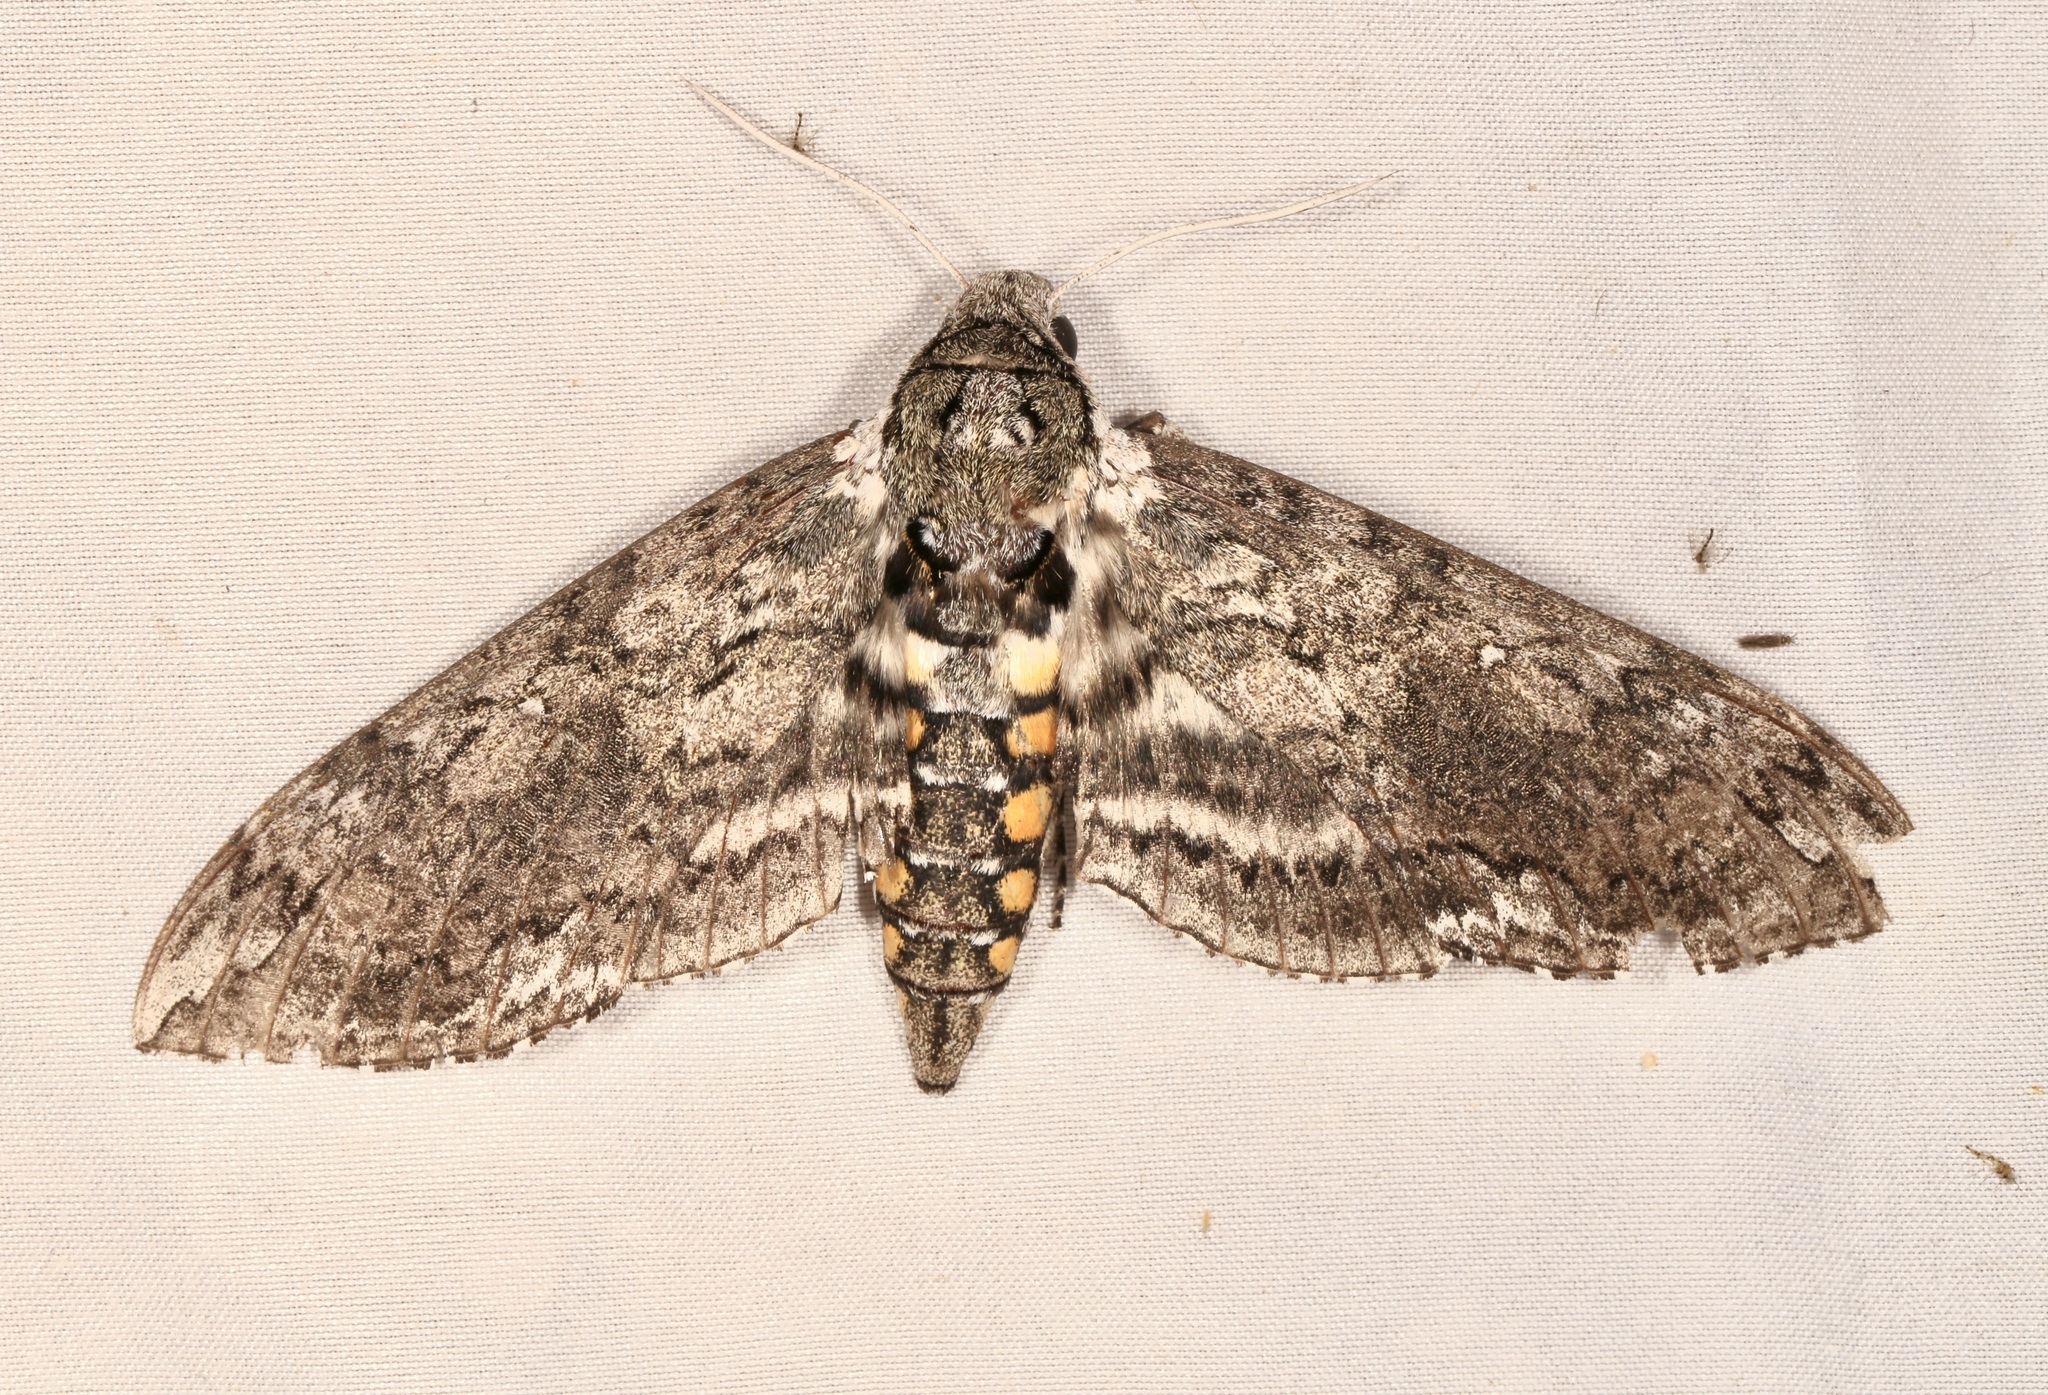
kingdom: Animalia
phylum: Arthropoda
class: Insecta
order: Lepidoptera
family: Sphingidae
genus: Manduca
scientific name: Manduca sexta
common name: Carolina sphinx
